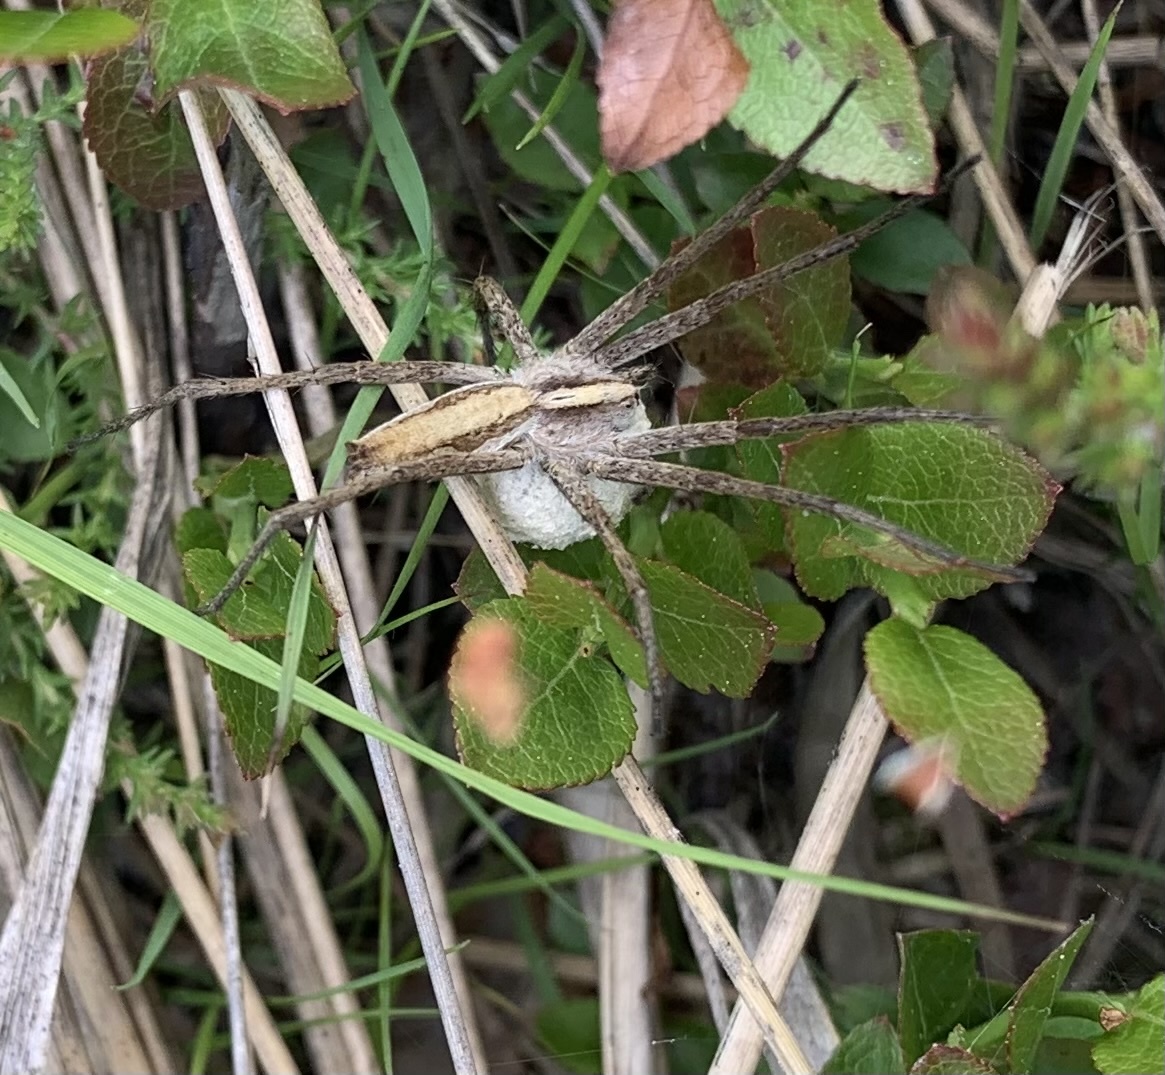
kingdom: Animalia
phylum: Arthropoda
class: Arachnida
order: Araneae
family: Pisauridae
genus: Pisaura
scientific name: Pisaura mirabilis
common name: Tent spider
